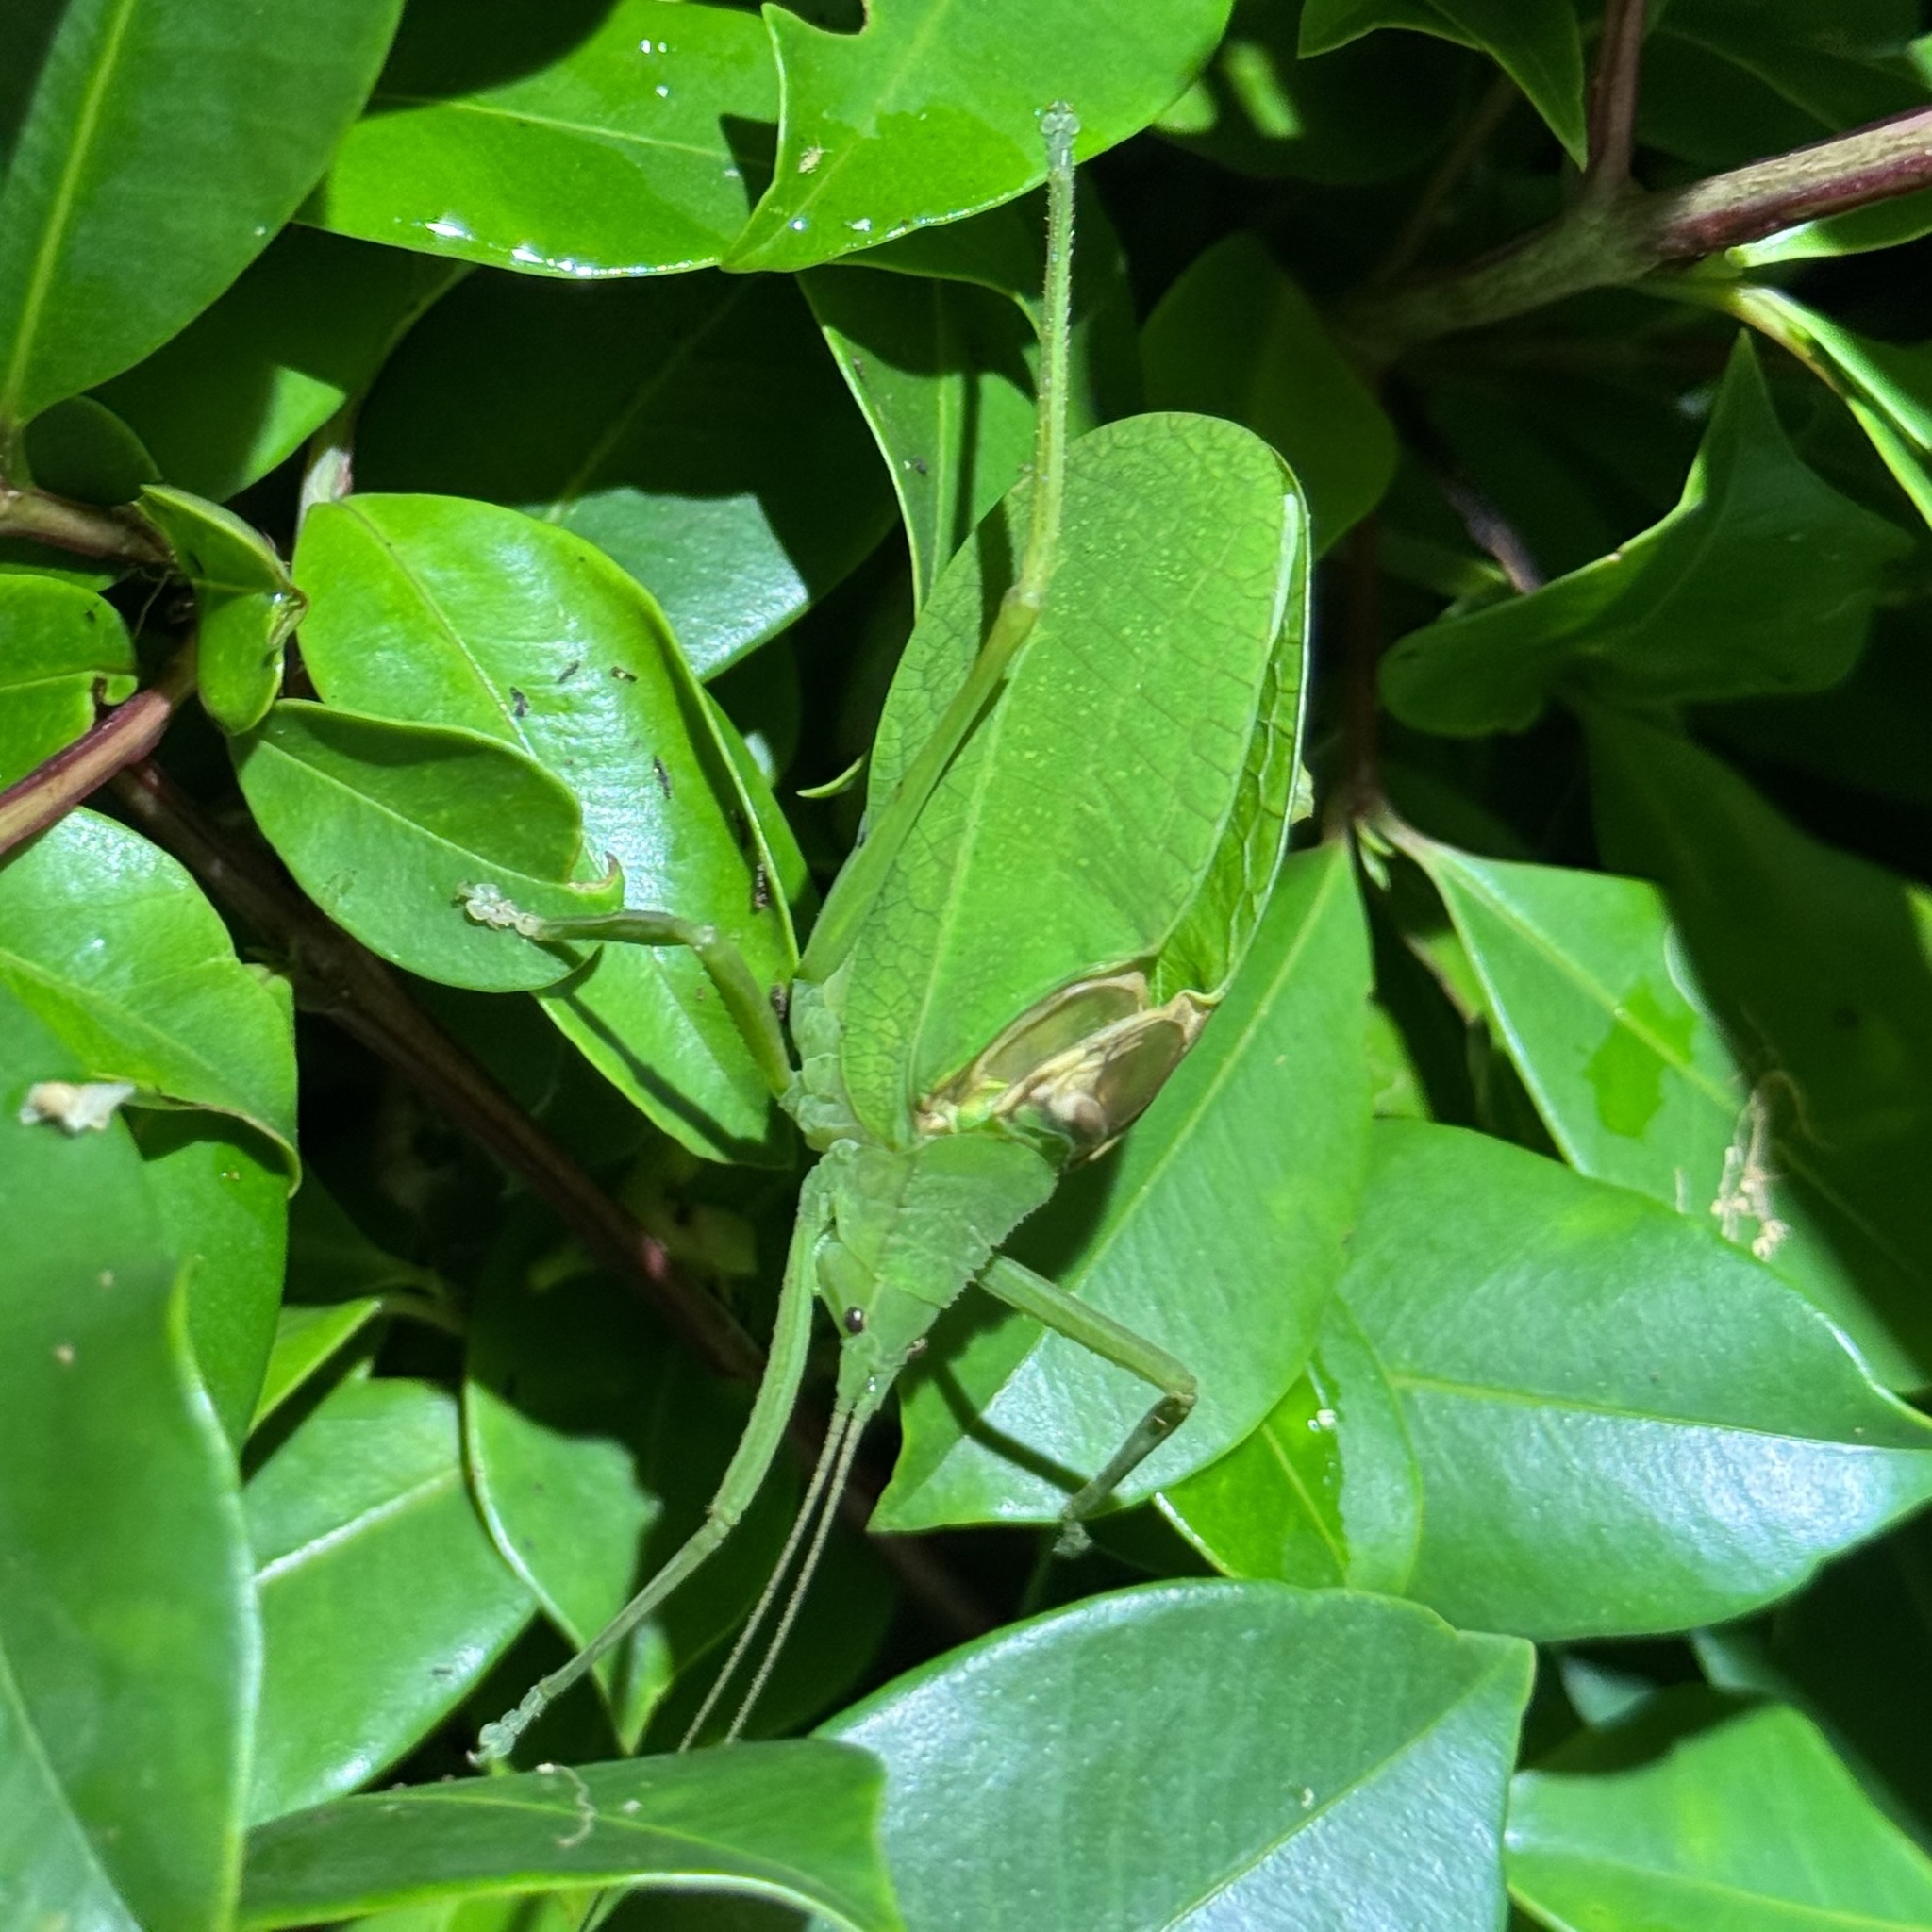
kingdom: Animalia
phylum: Arthropoda
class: Insecta
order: Orthoptera
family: Tettigoniidae
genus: Mastighaphoides
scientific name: Mastighaphoides haffneri
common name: Haffner's broad-winged snub-nose
